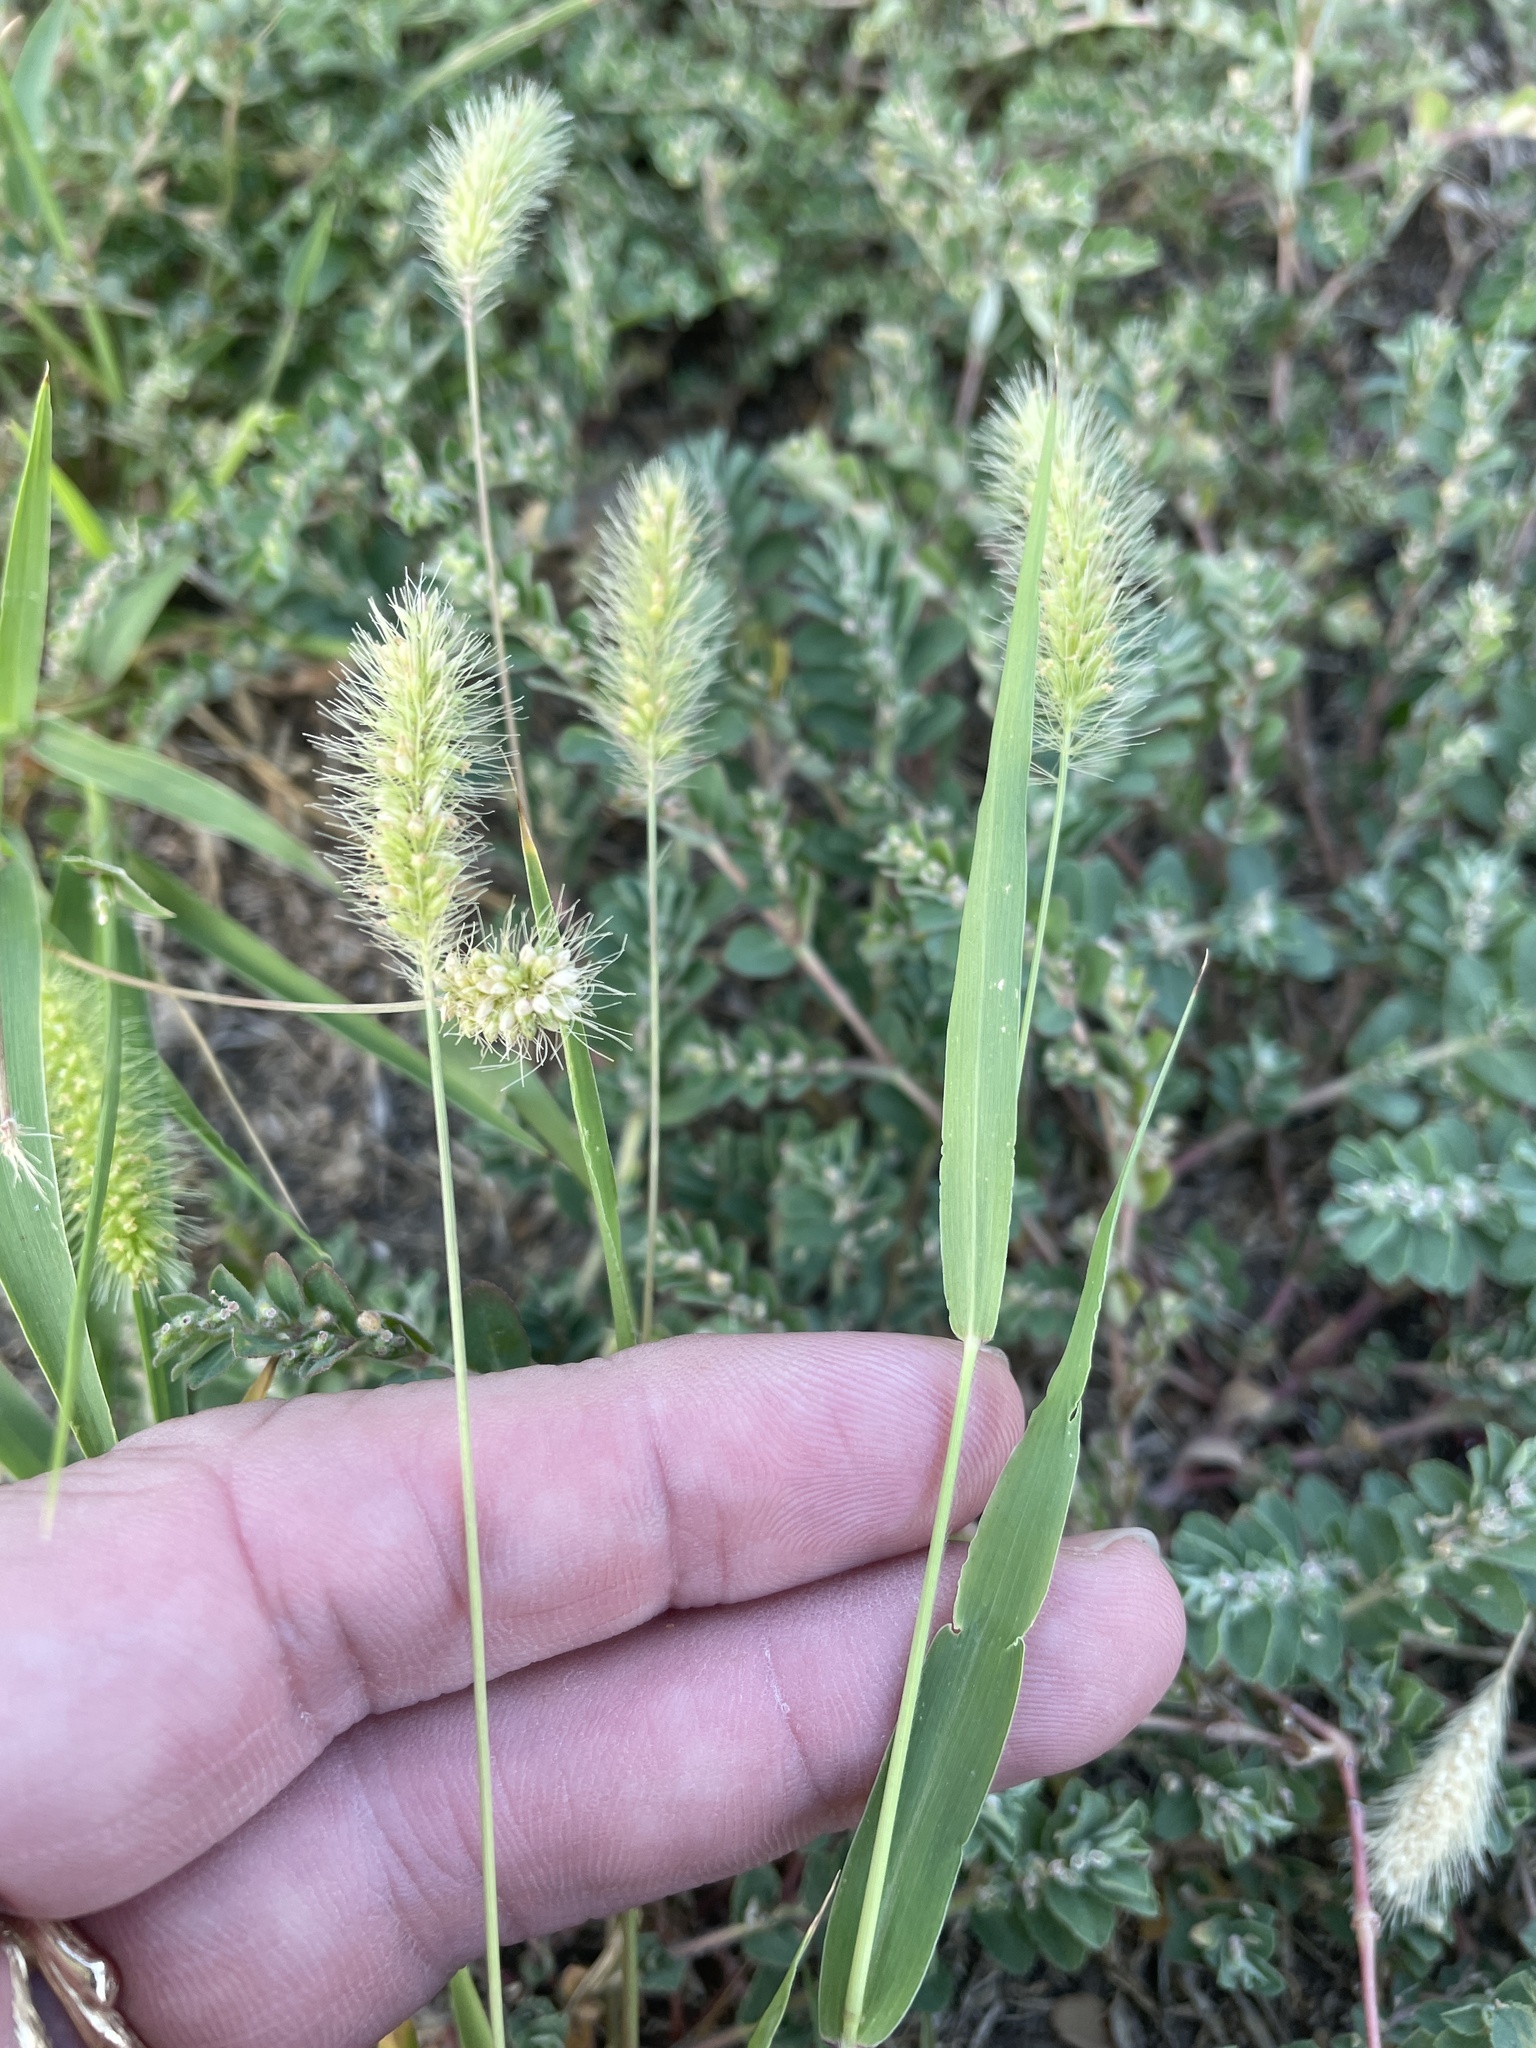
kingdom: Plantae
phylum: Tracheophyta
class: Liliopsida
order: Poales
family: Poaceae
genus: Setaria
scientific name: Setaria viridis
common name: Green bristlegrass
